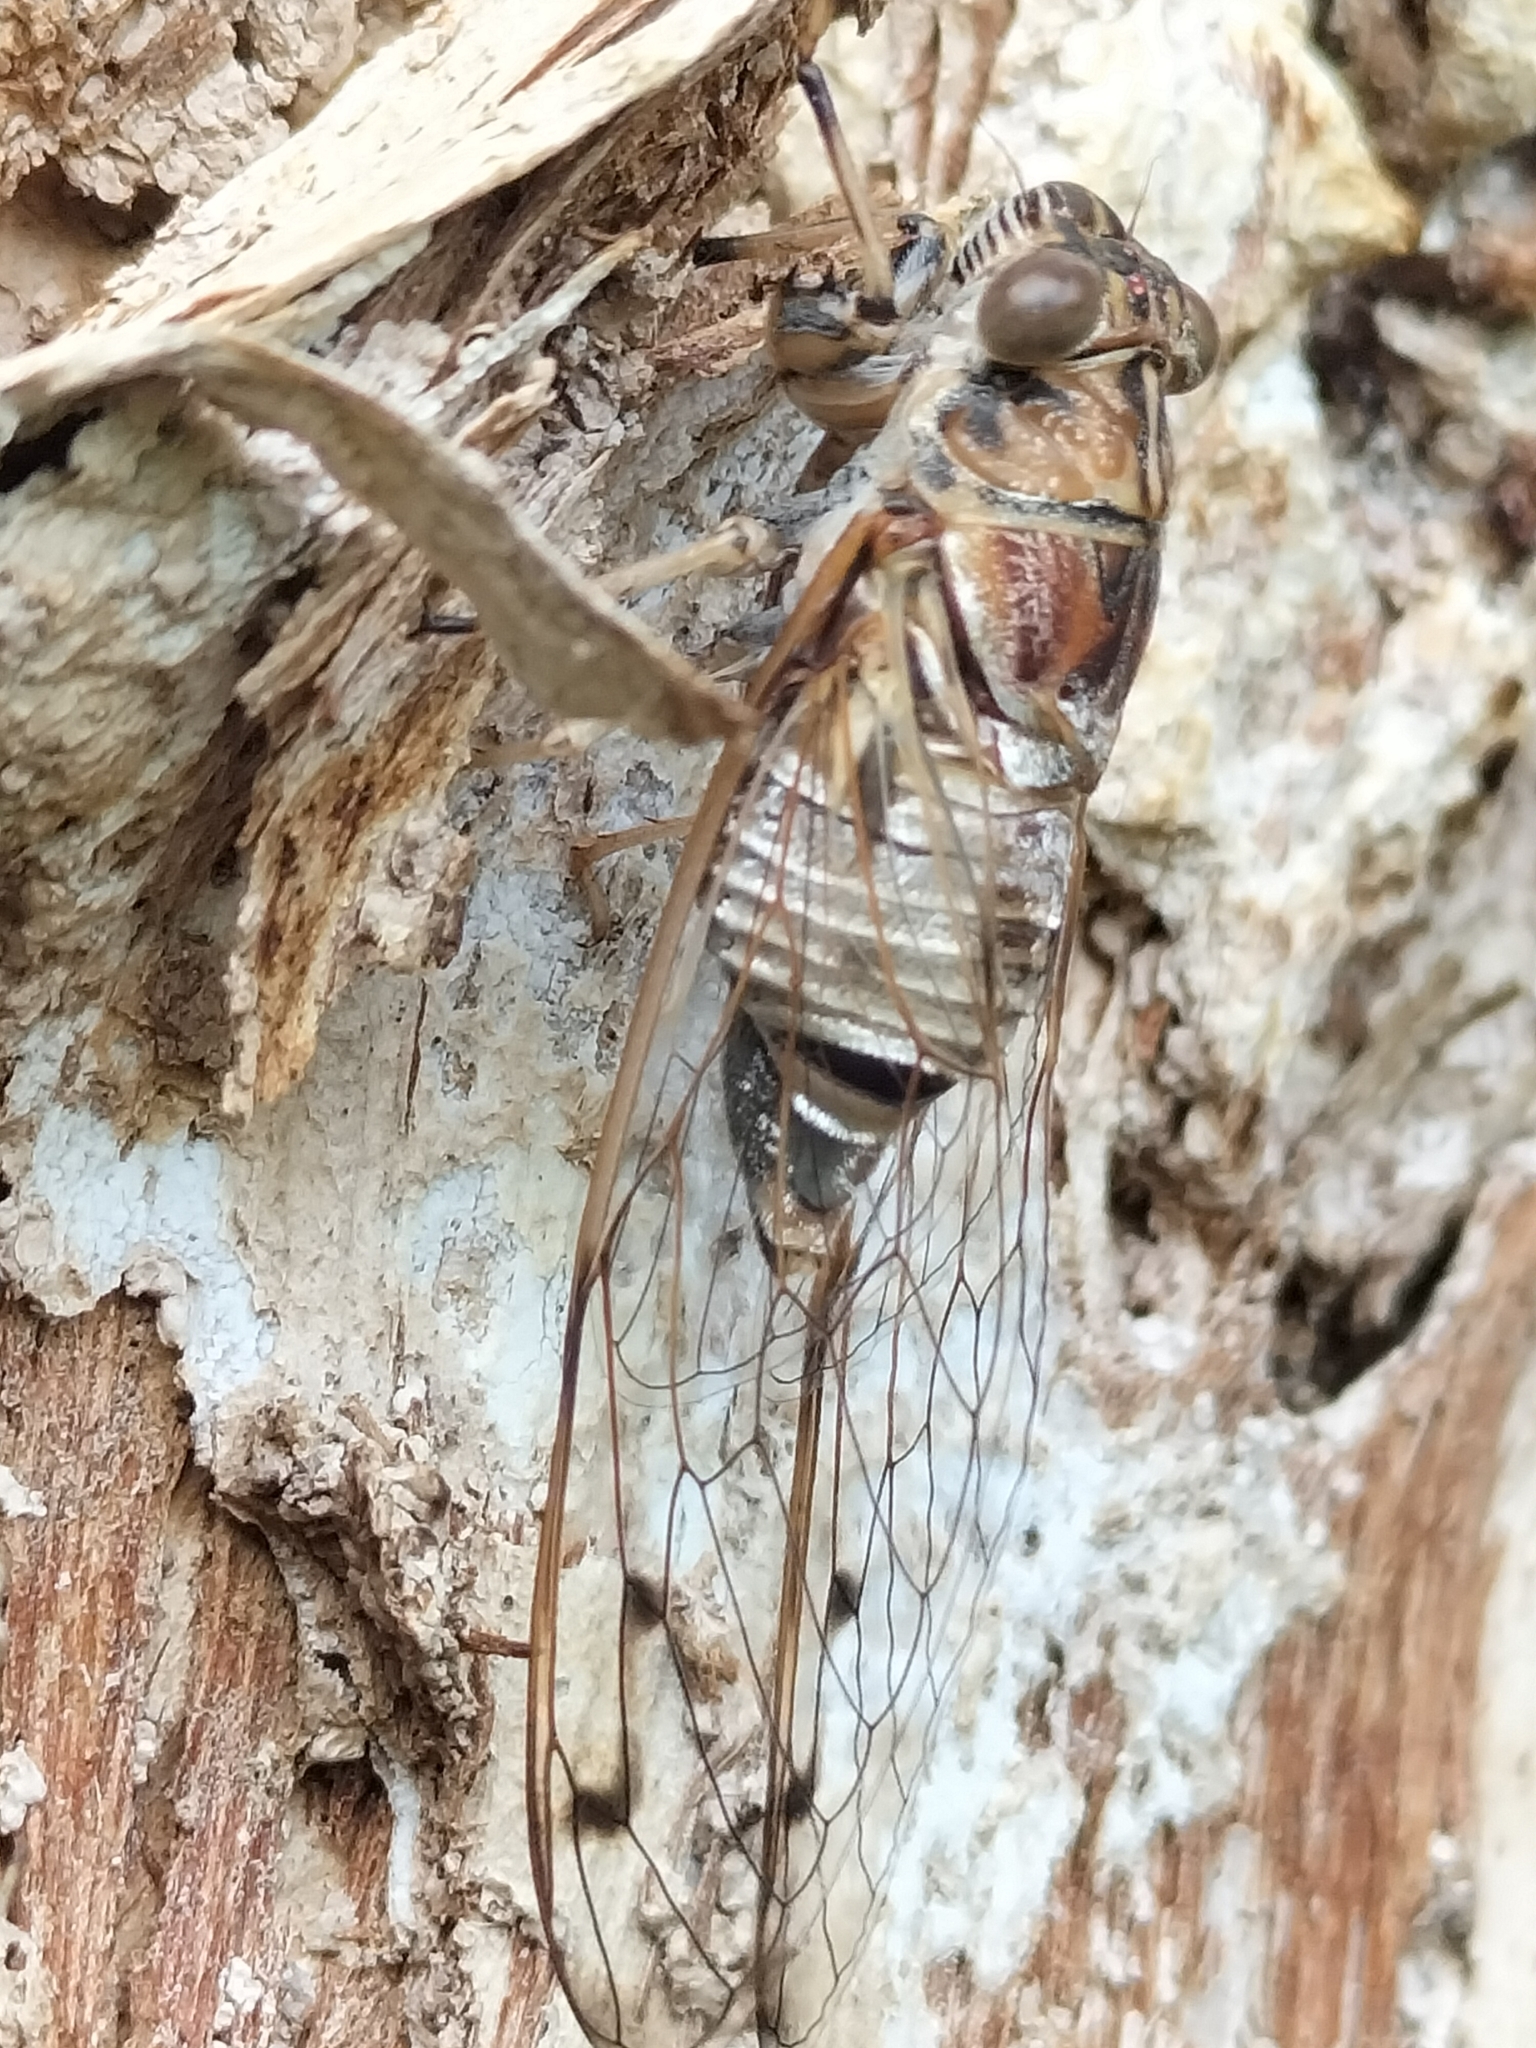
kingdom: Animalia
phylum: Arthropoda
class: Insecta
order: Hemiptera
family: Cicadidae
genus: Tamasa
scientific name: Tamasa burgessi
